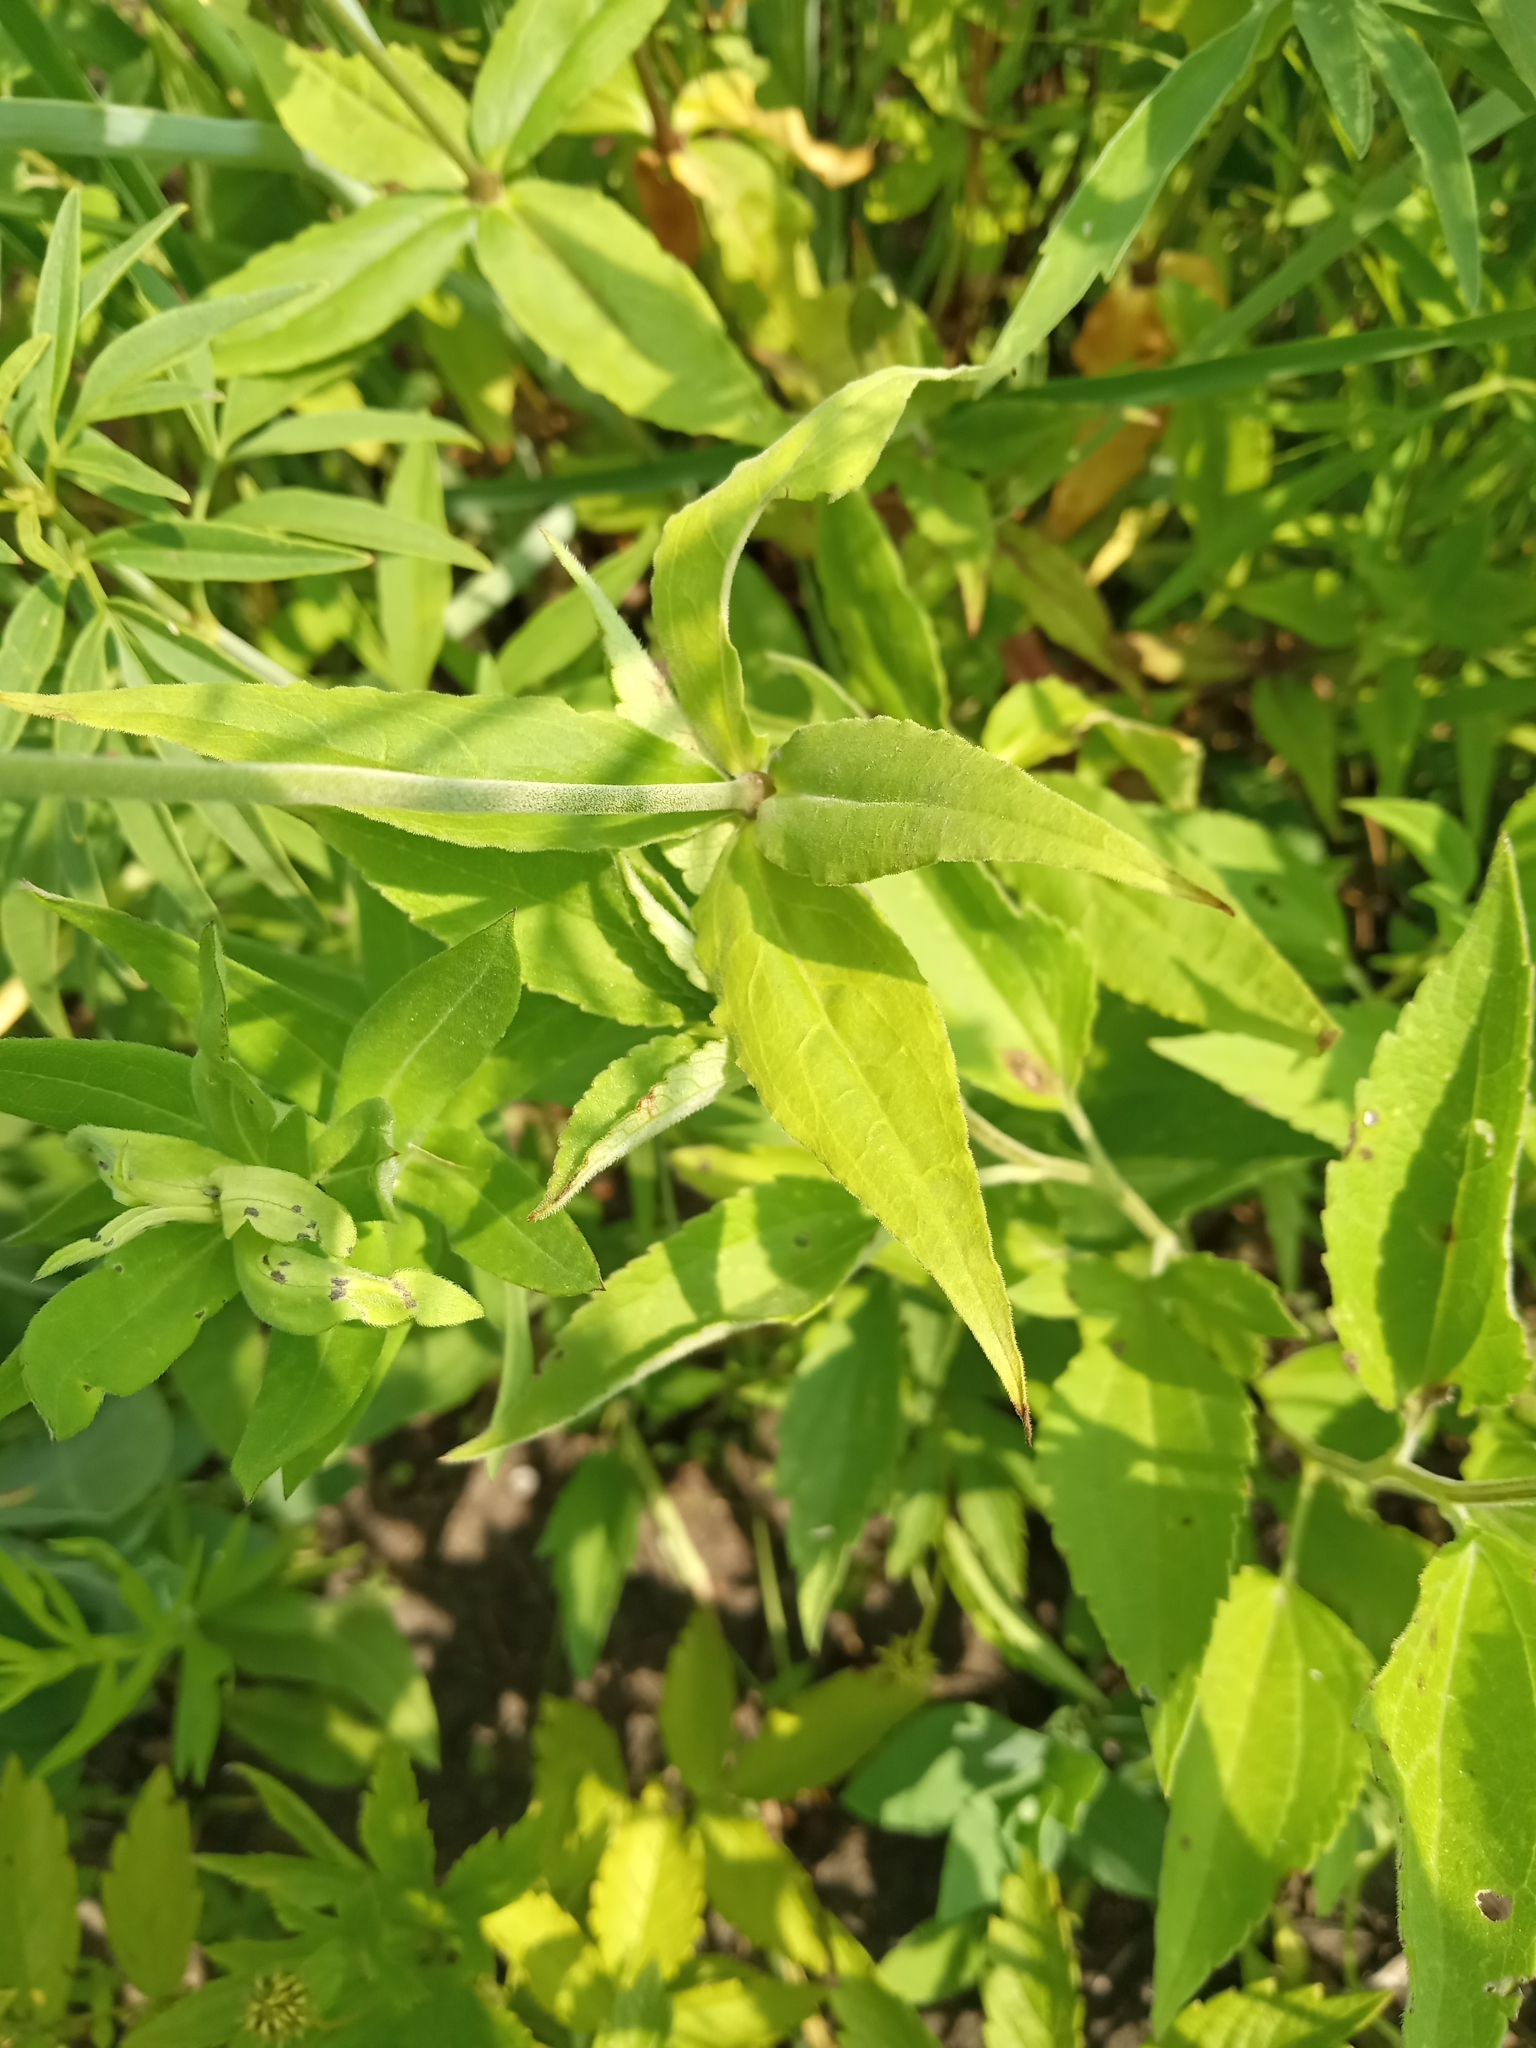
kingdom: Plantae
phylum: Tracheophyta
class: Magnoliopsida
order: Caryophyllales
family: Caryophyllaceae
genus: Silene
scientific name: Silene stellata
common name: Starry campion
